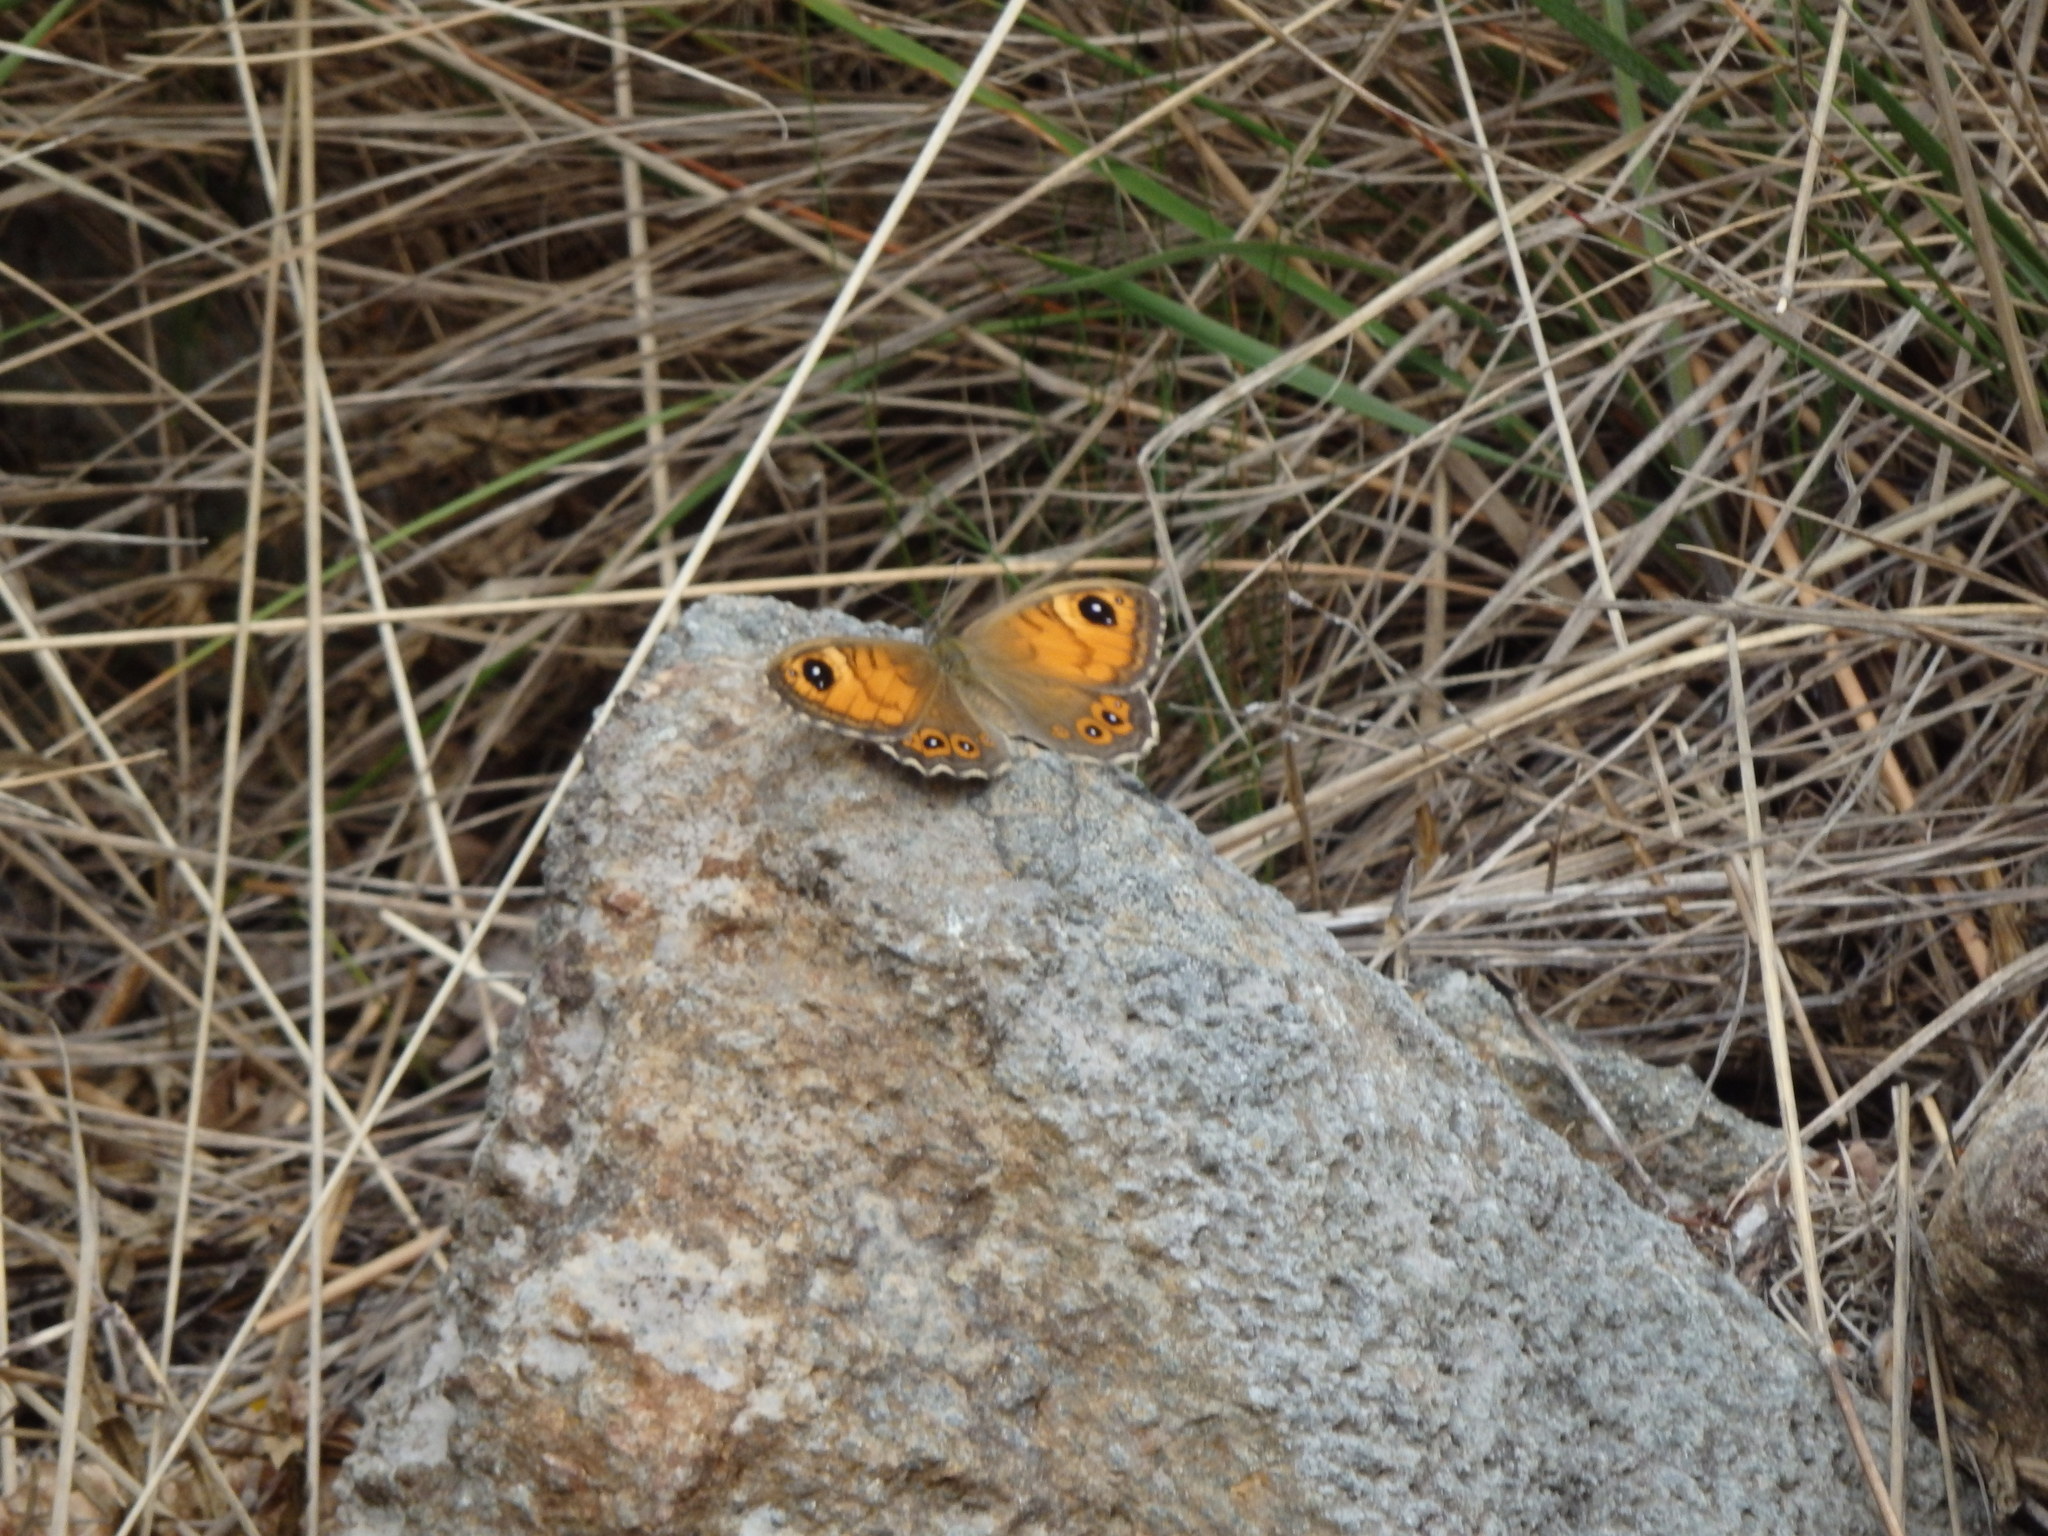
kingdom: Animalia
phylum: Arthropoda
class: Insecta
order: Lepidoptera
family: Nymphalidae
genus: Pararge
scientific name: Pararge Lasiommata maera
